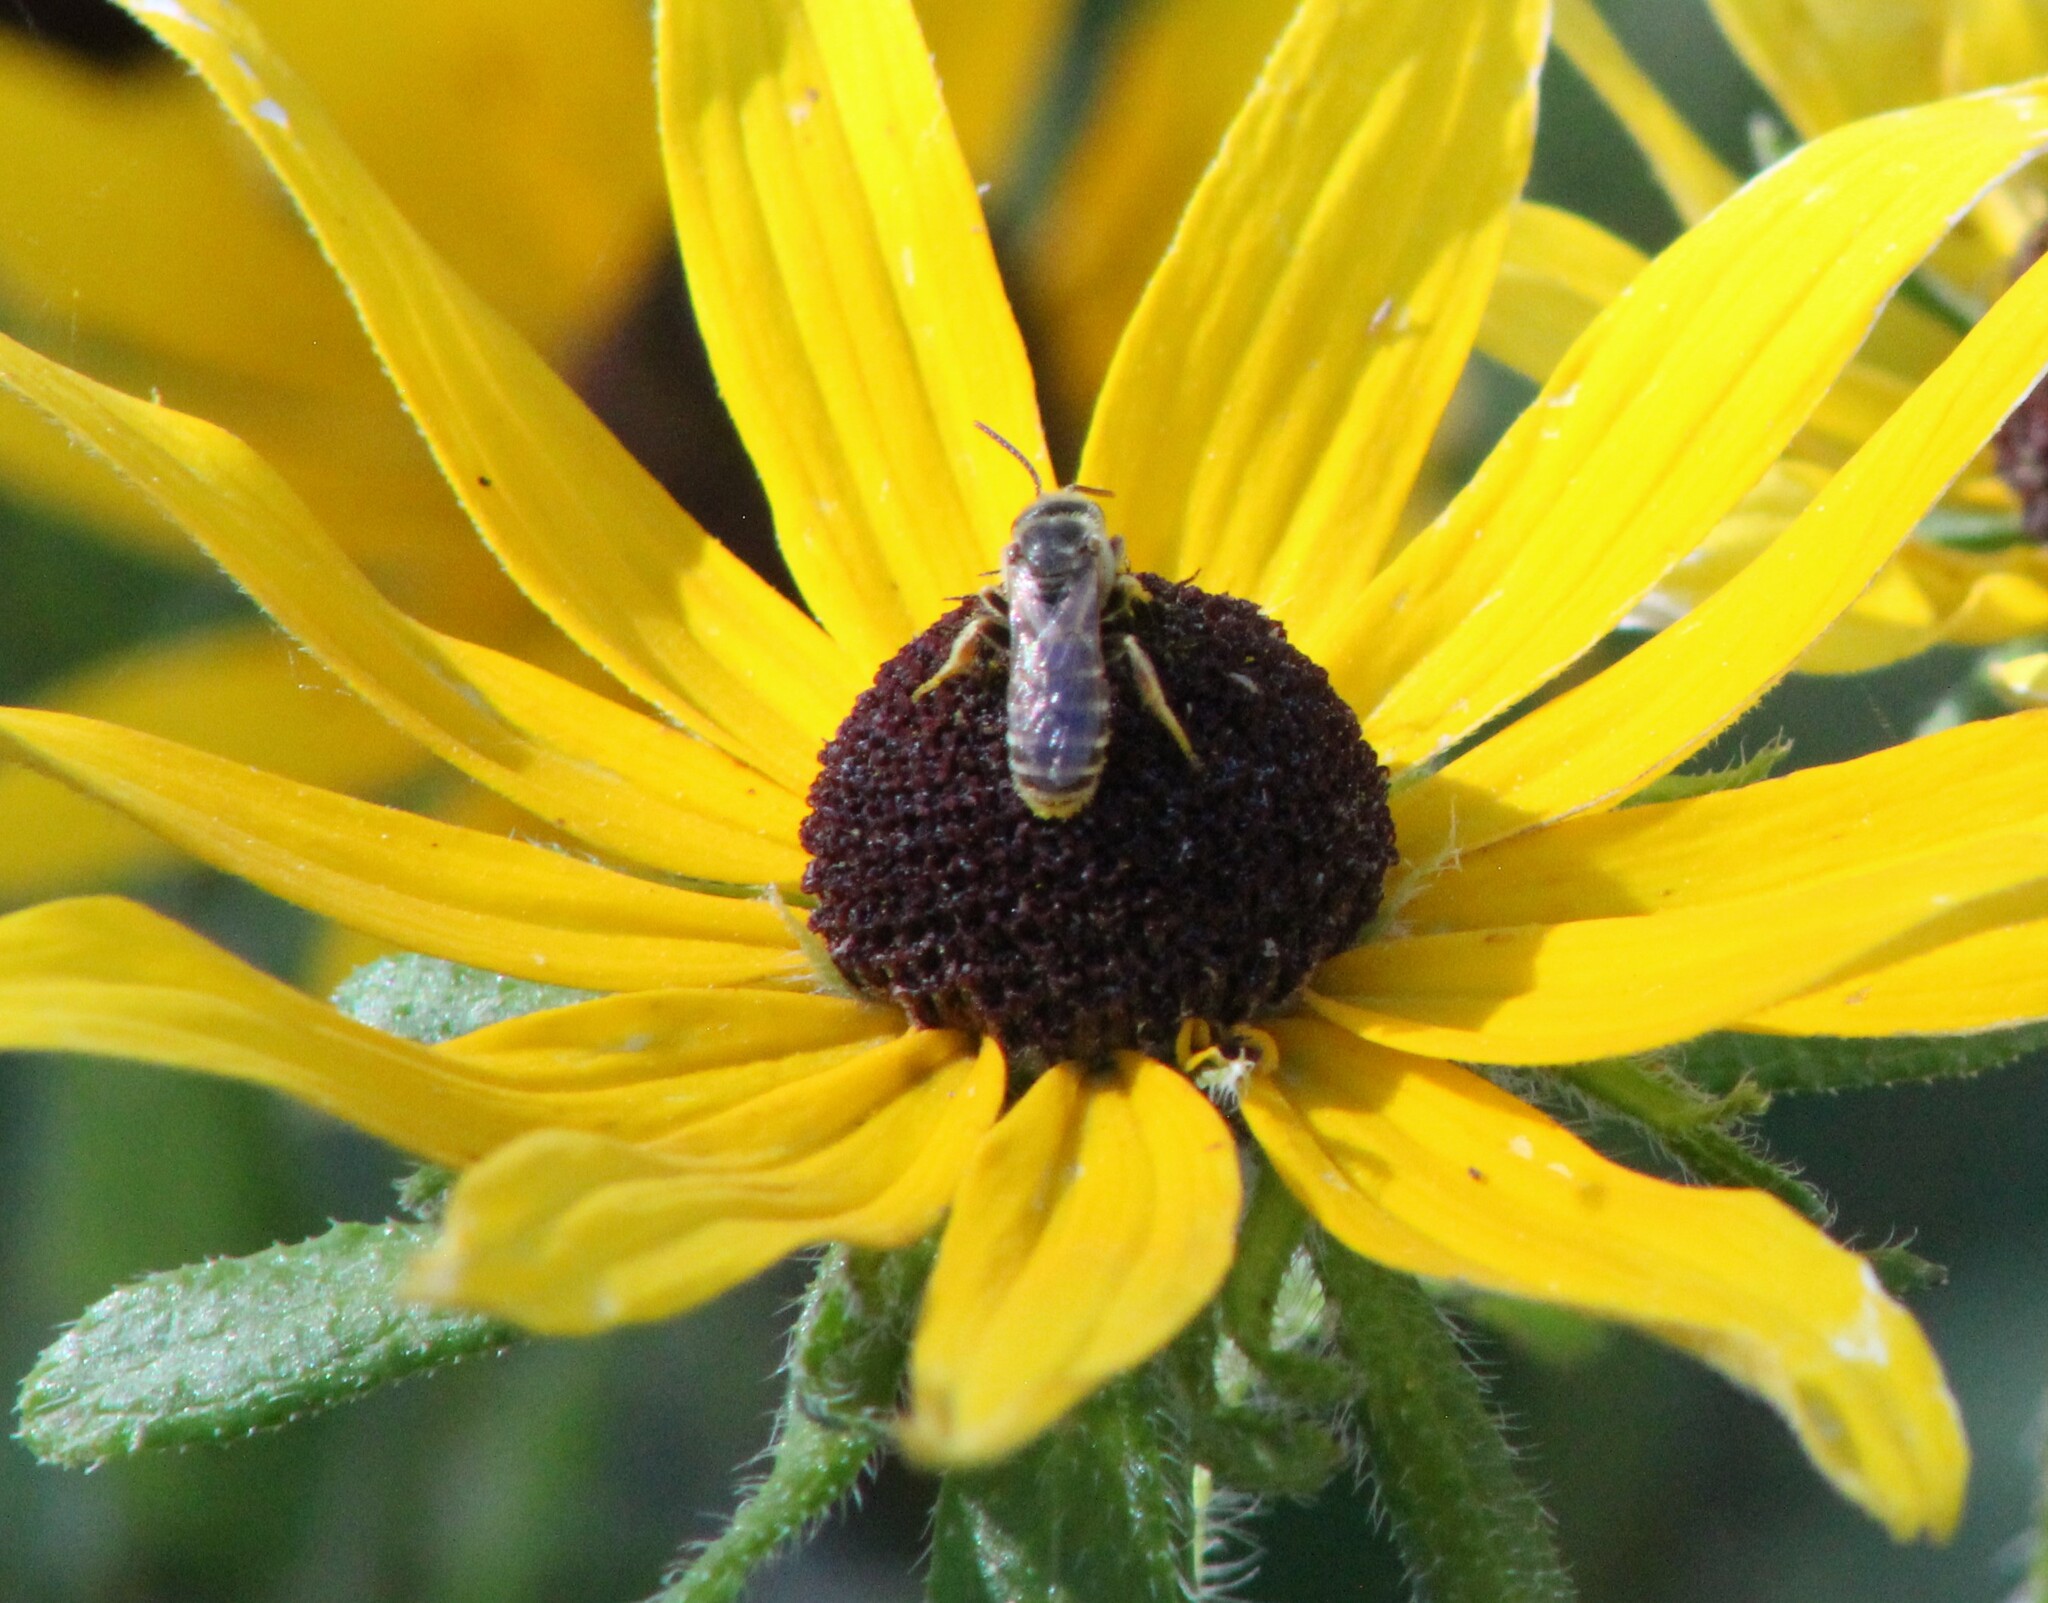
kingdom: Animalia
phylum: Arthropoda
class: Insecta
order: Hymenoptera
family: Halictidae
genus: Halictus
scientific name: Halictus ligatus
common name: Ligated furrow bee
